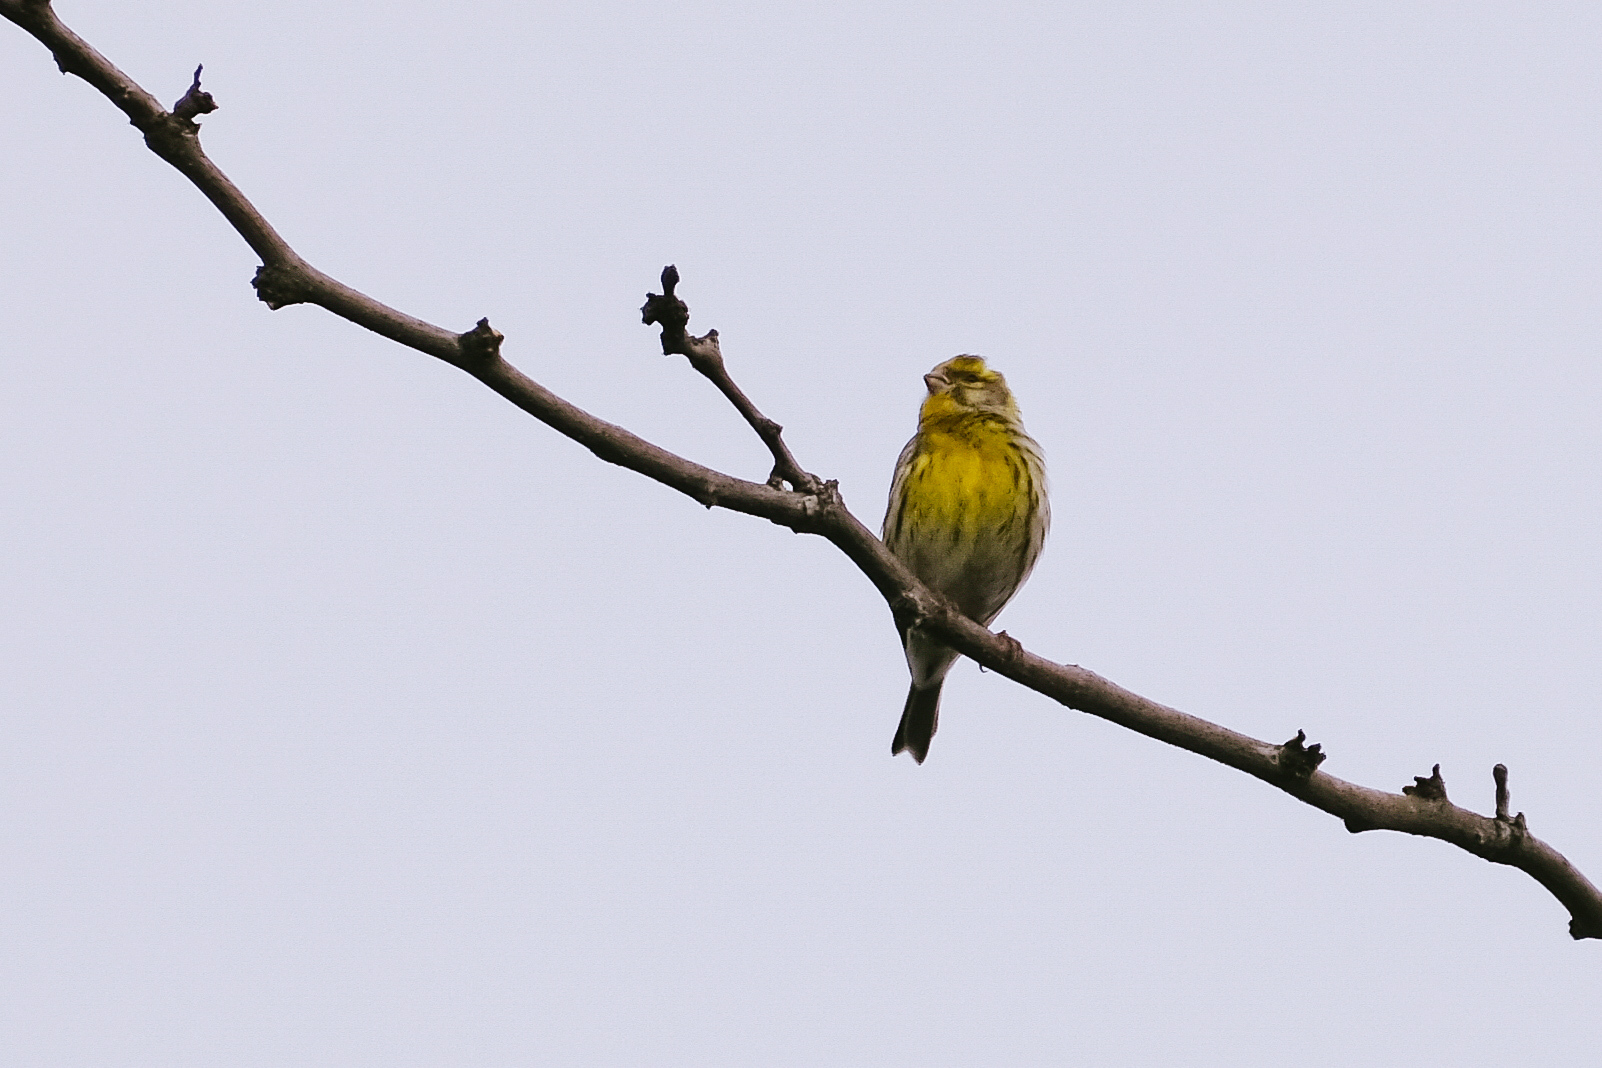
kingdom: Animalia
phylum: Chordata
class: Aves
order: Passeriformes
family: Fringillidae
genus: Serinus
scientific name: Serinus serinus
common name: European serin
